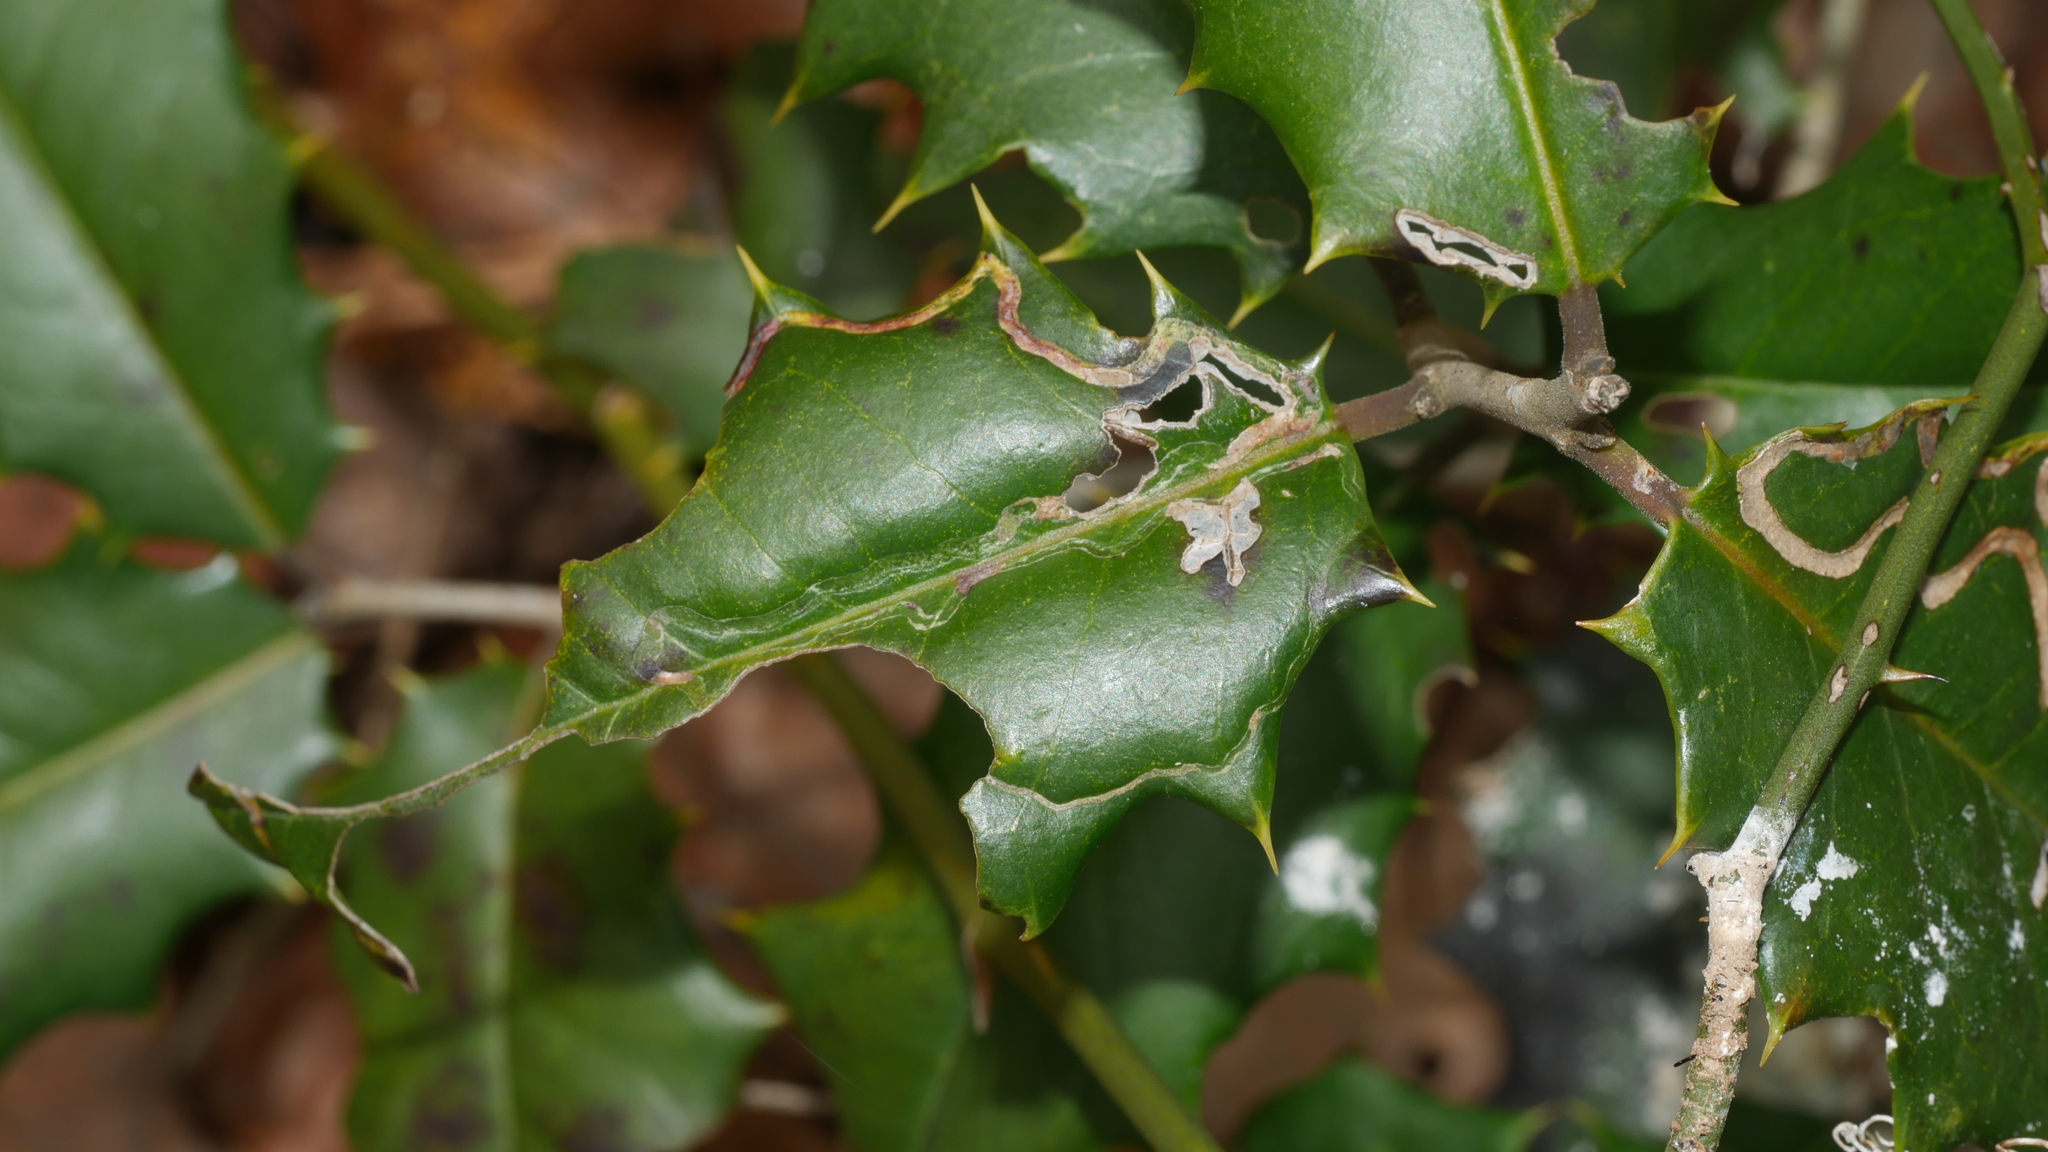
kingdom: Animalia
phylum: Arthropoda
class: Insecta
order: Diptera
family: Agromyzidae
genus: Phytomyza
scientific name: Phytomyza opacae
